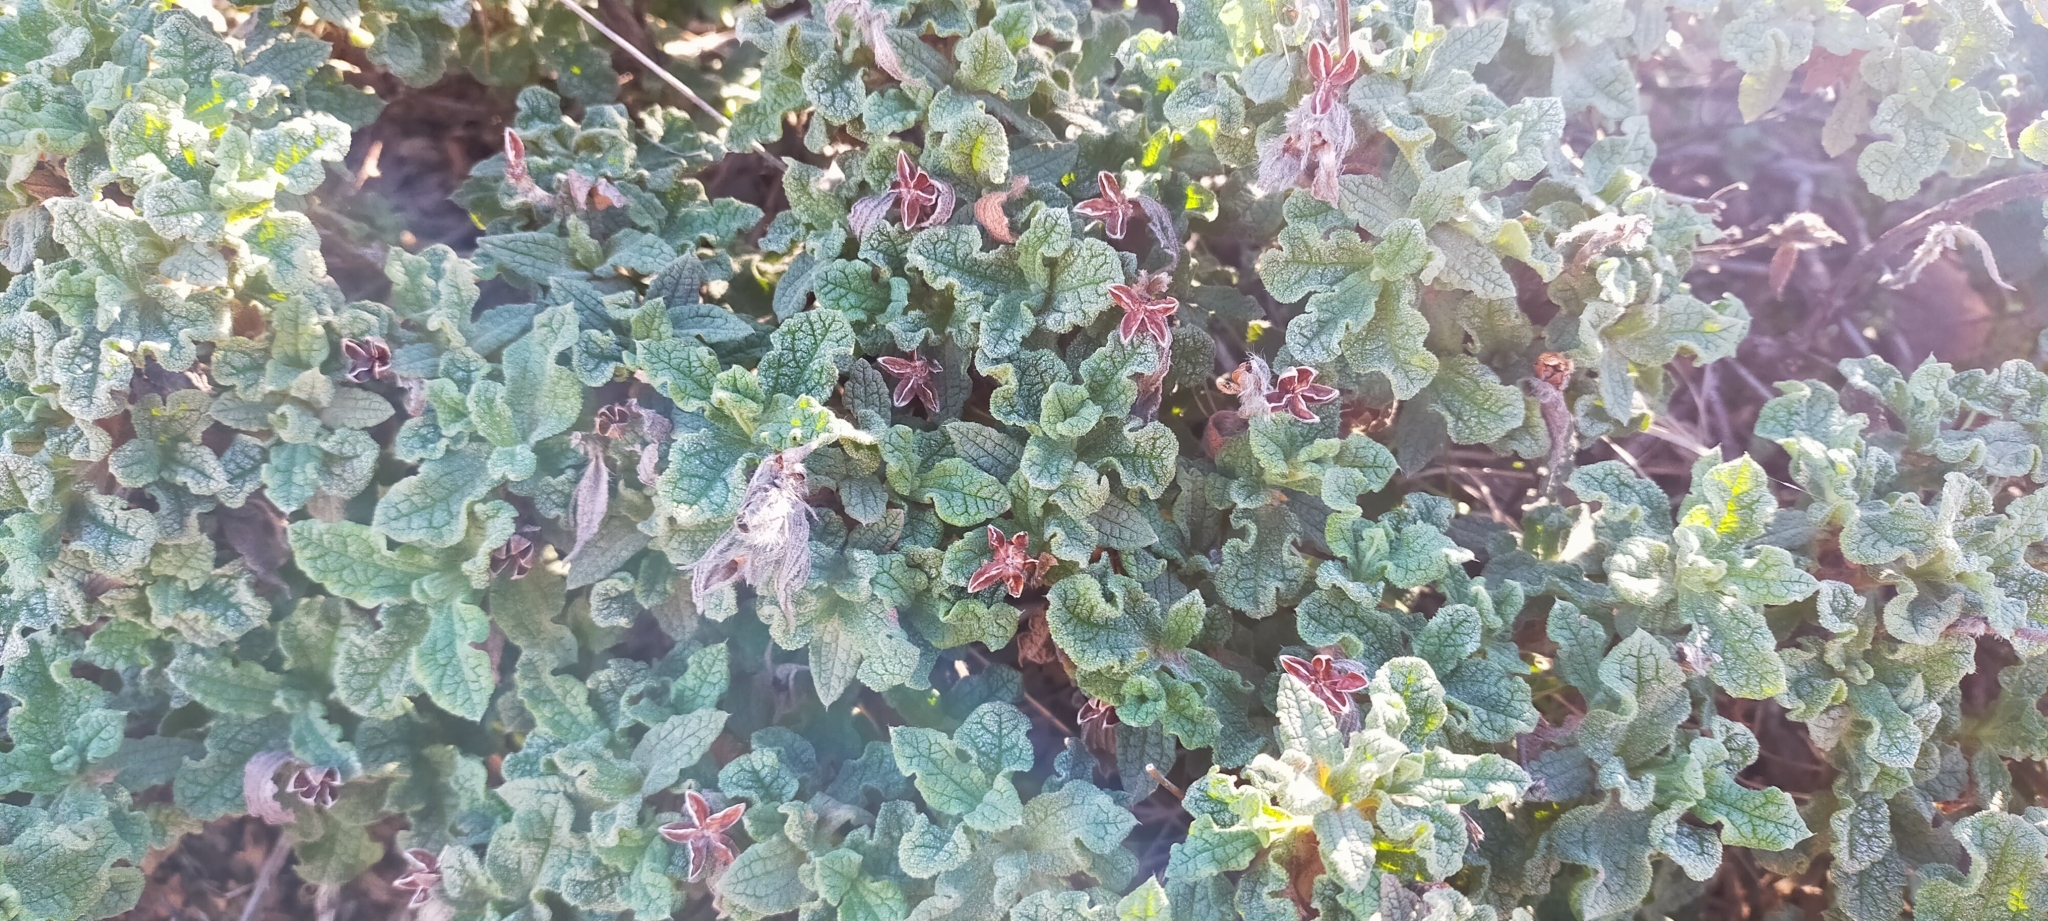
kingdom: Plantae
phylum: Tracheophyta
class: Magnoliopsida
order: Malvales
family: Cistaceae
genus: Cistus
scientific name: Cistus crispus
